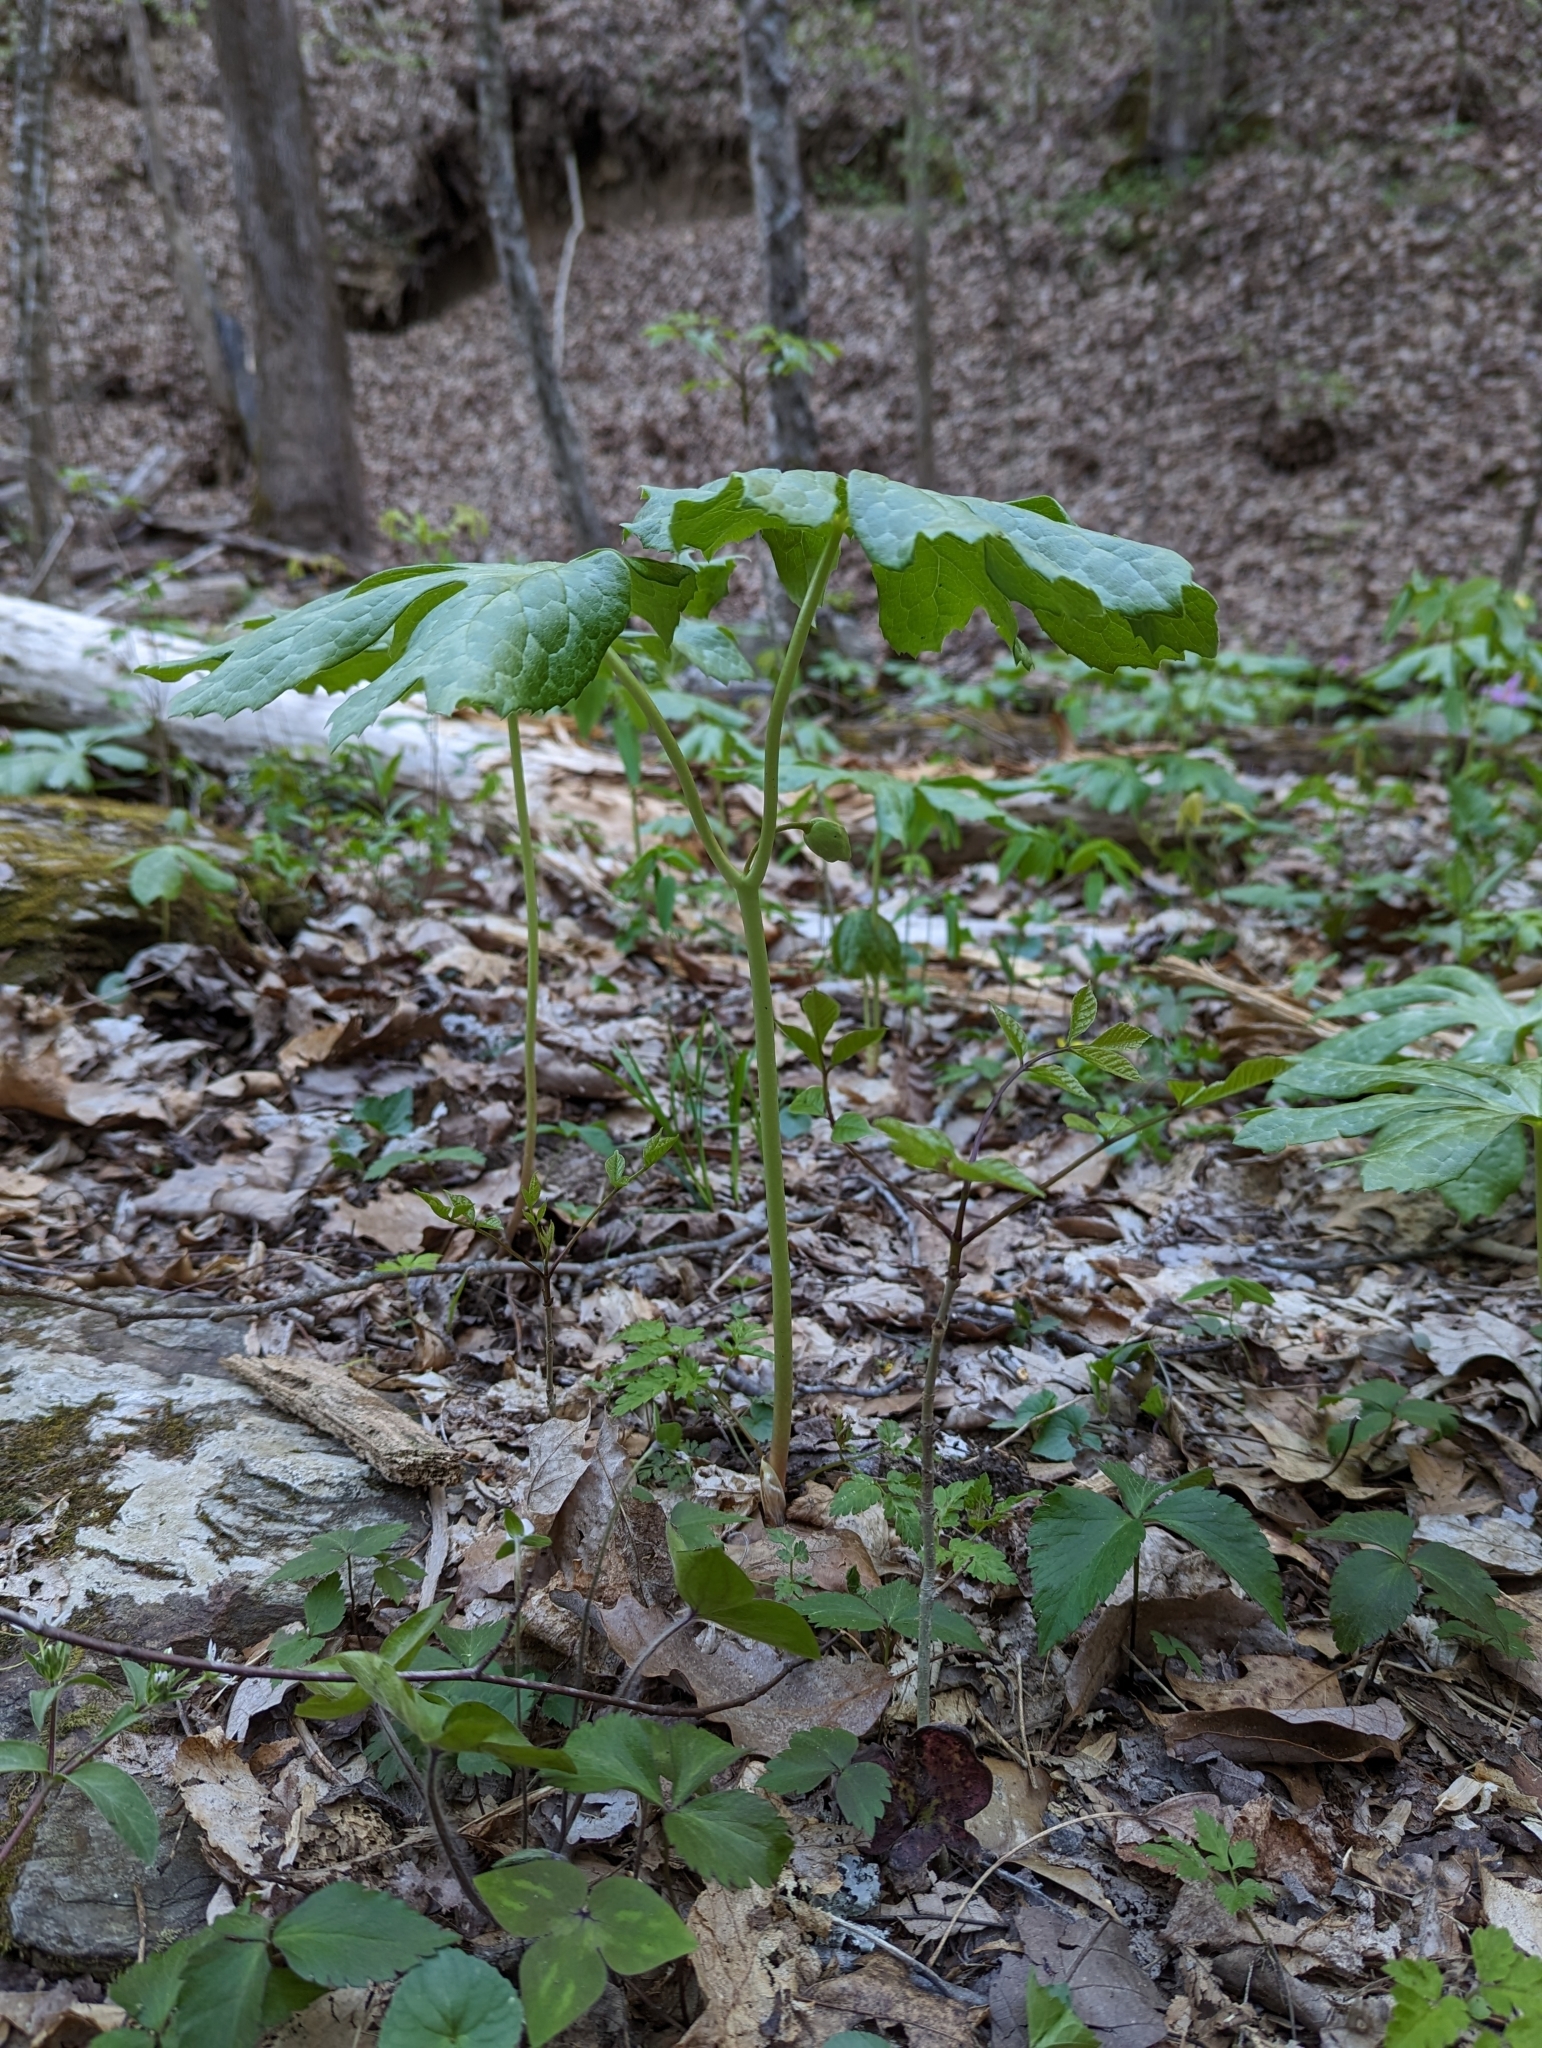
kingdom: Plantae
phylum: Tracheophyta
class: Magnoliopsida
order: Ranunculales
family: Berberidaceae
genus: Podophyllum
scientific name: Podophyllum peltatum
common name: Wild mandrake
